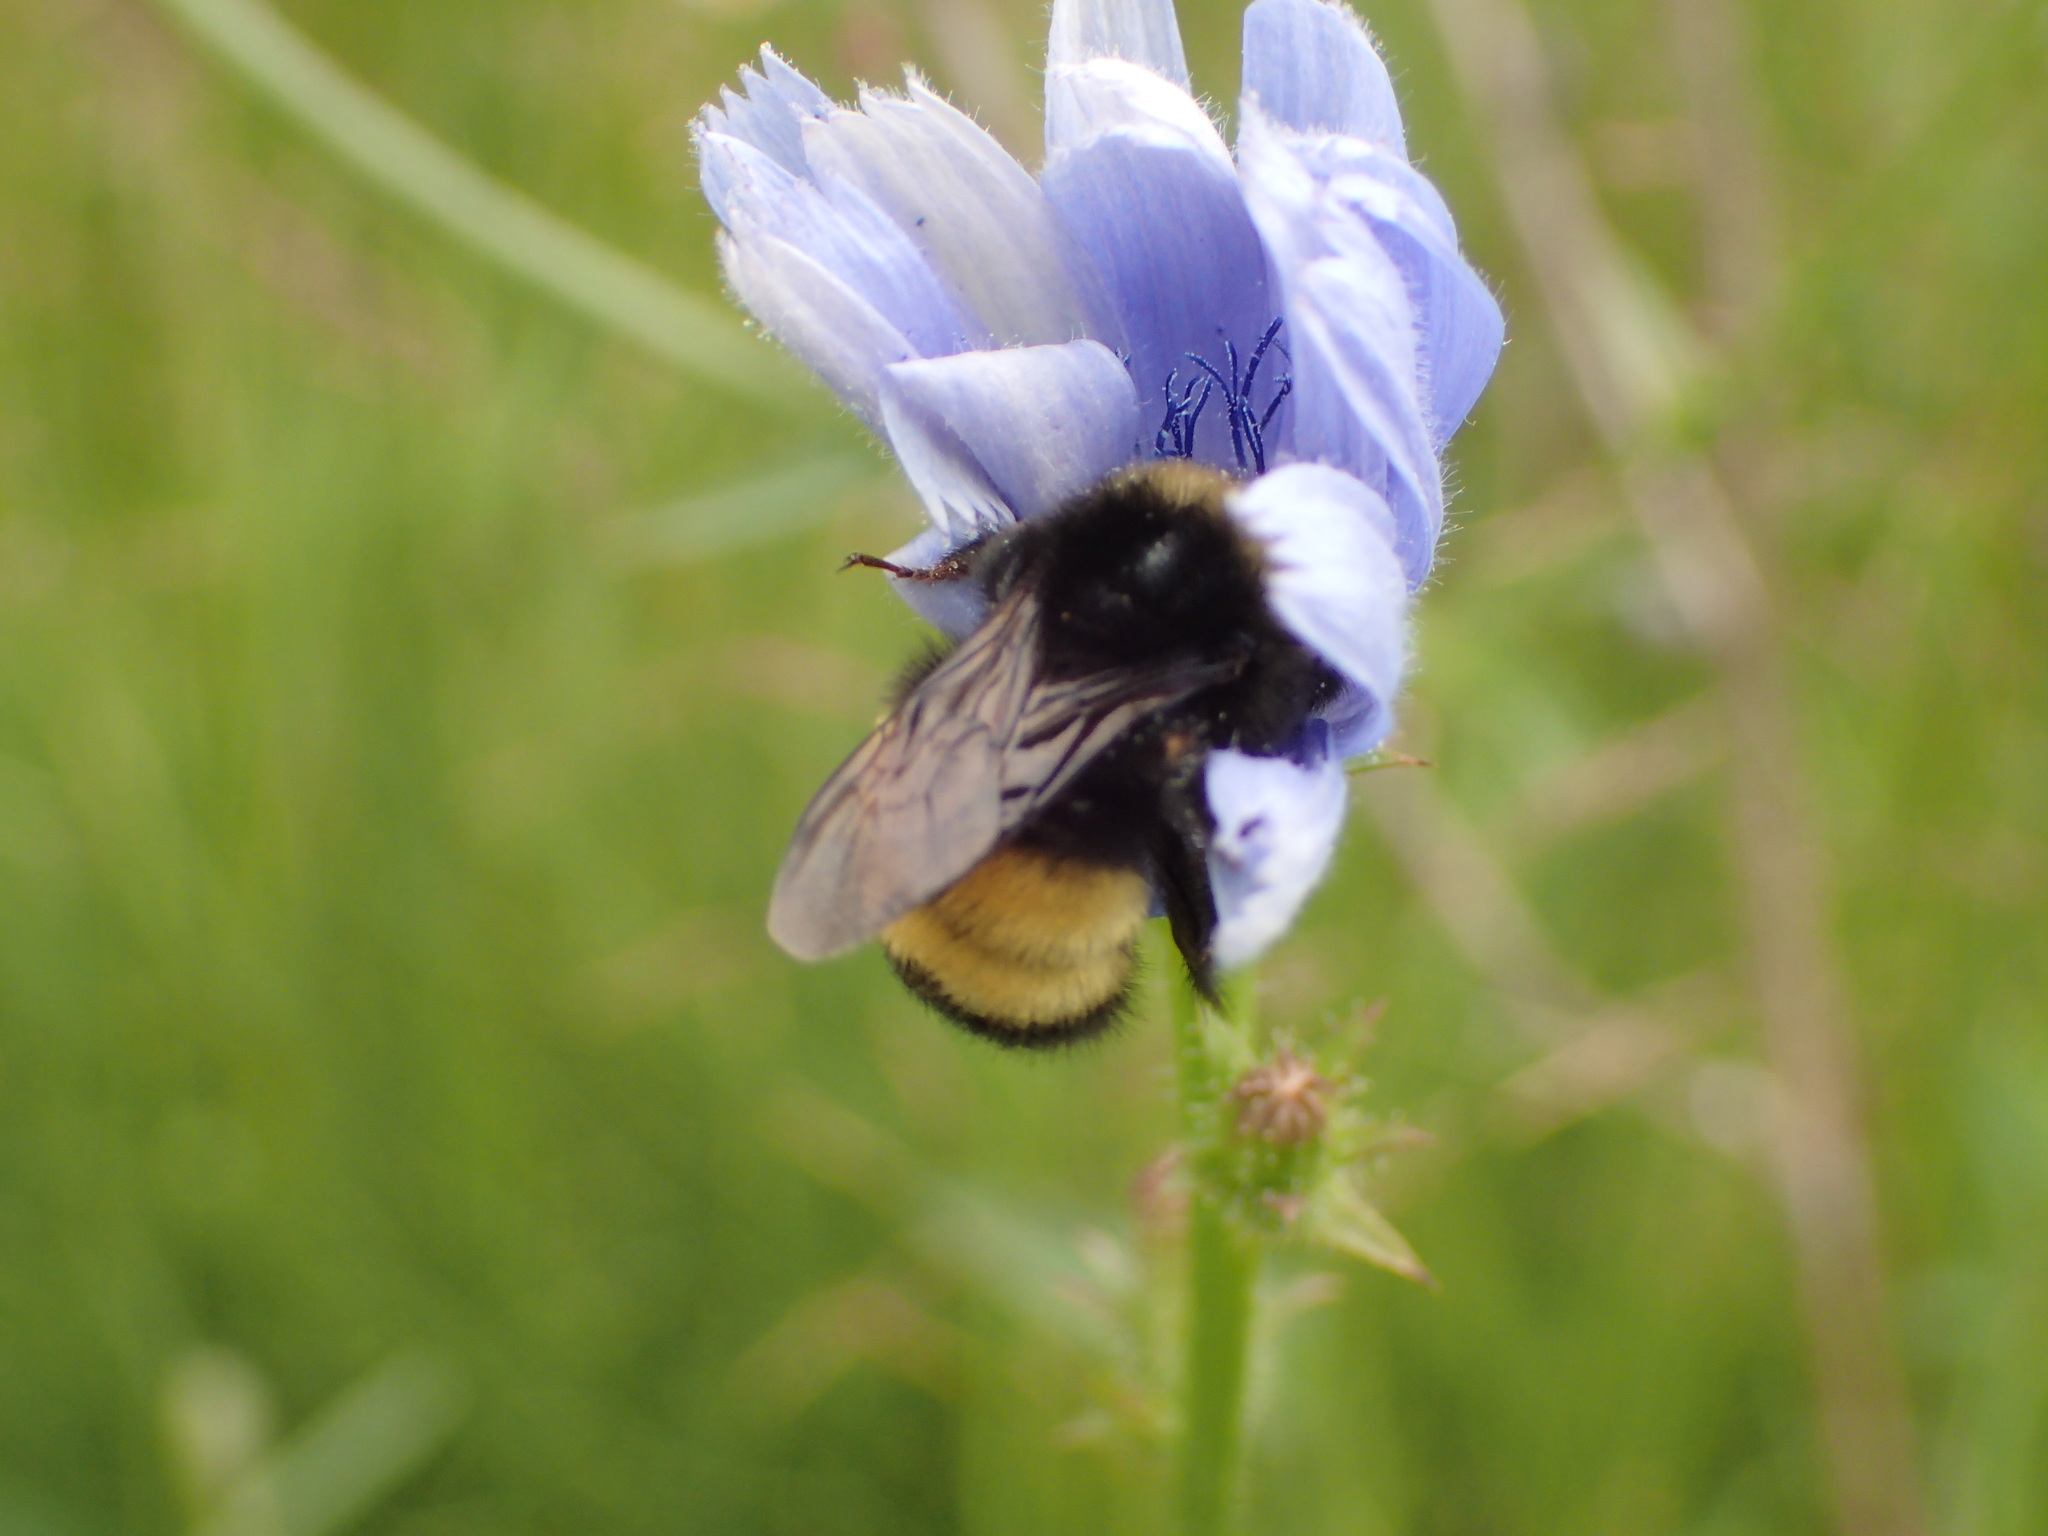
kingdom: Animalia
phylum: Arthropoda
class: Insecta
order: Hymenoptera
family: Apidae
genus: Bombus
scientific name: Bombus terricola
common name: Yellow-banded bumble bee
